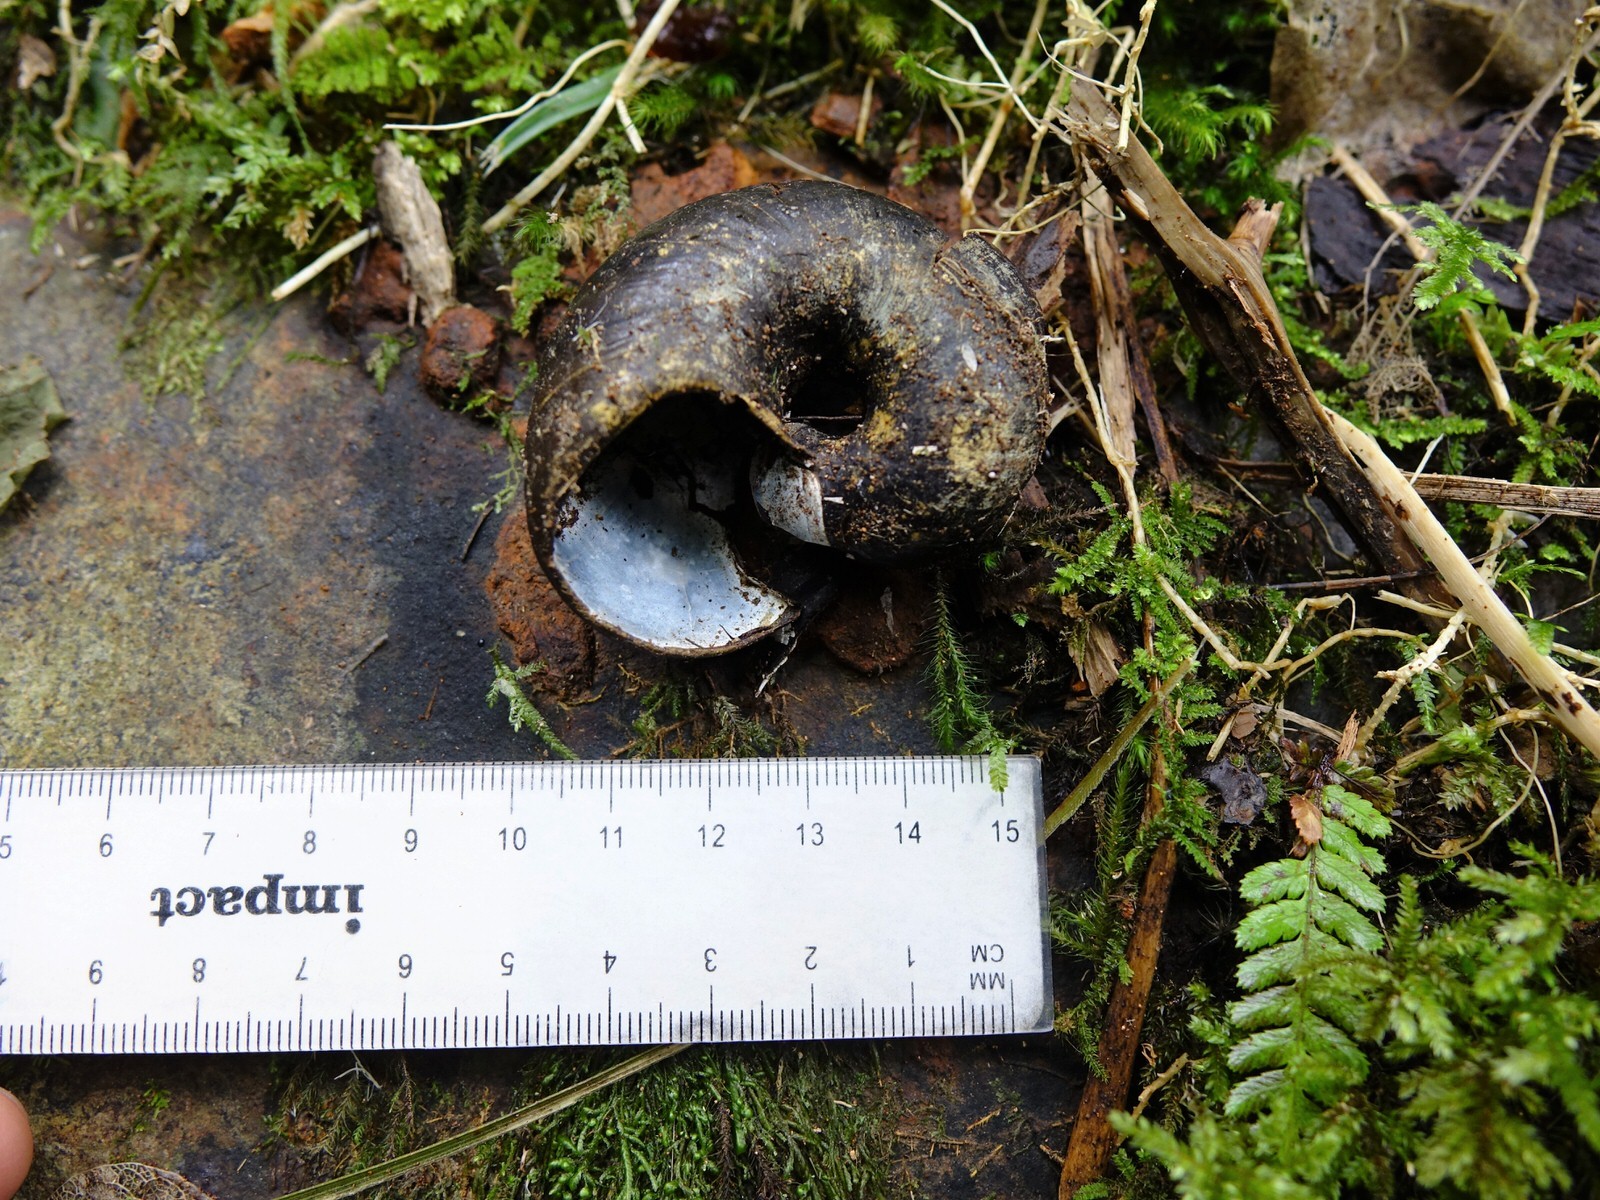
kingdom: Animalia
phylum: Mollusca
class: Gastropoda
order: Stylommatophora
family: Rhytididae
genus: Paryphanta
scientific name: Paryphanta busbyi
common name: Kauri snail
